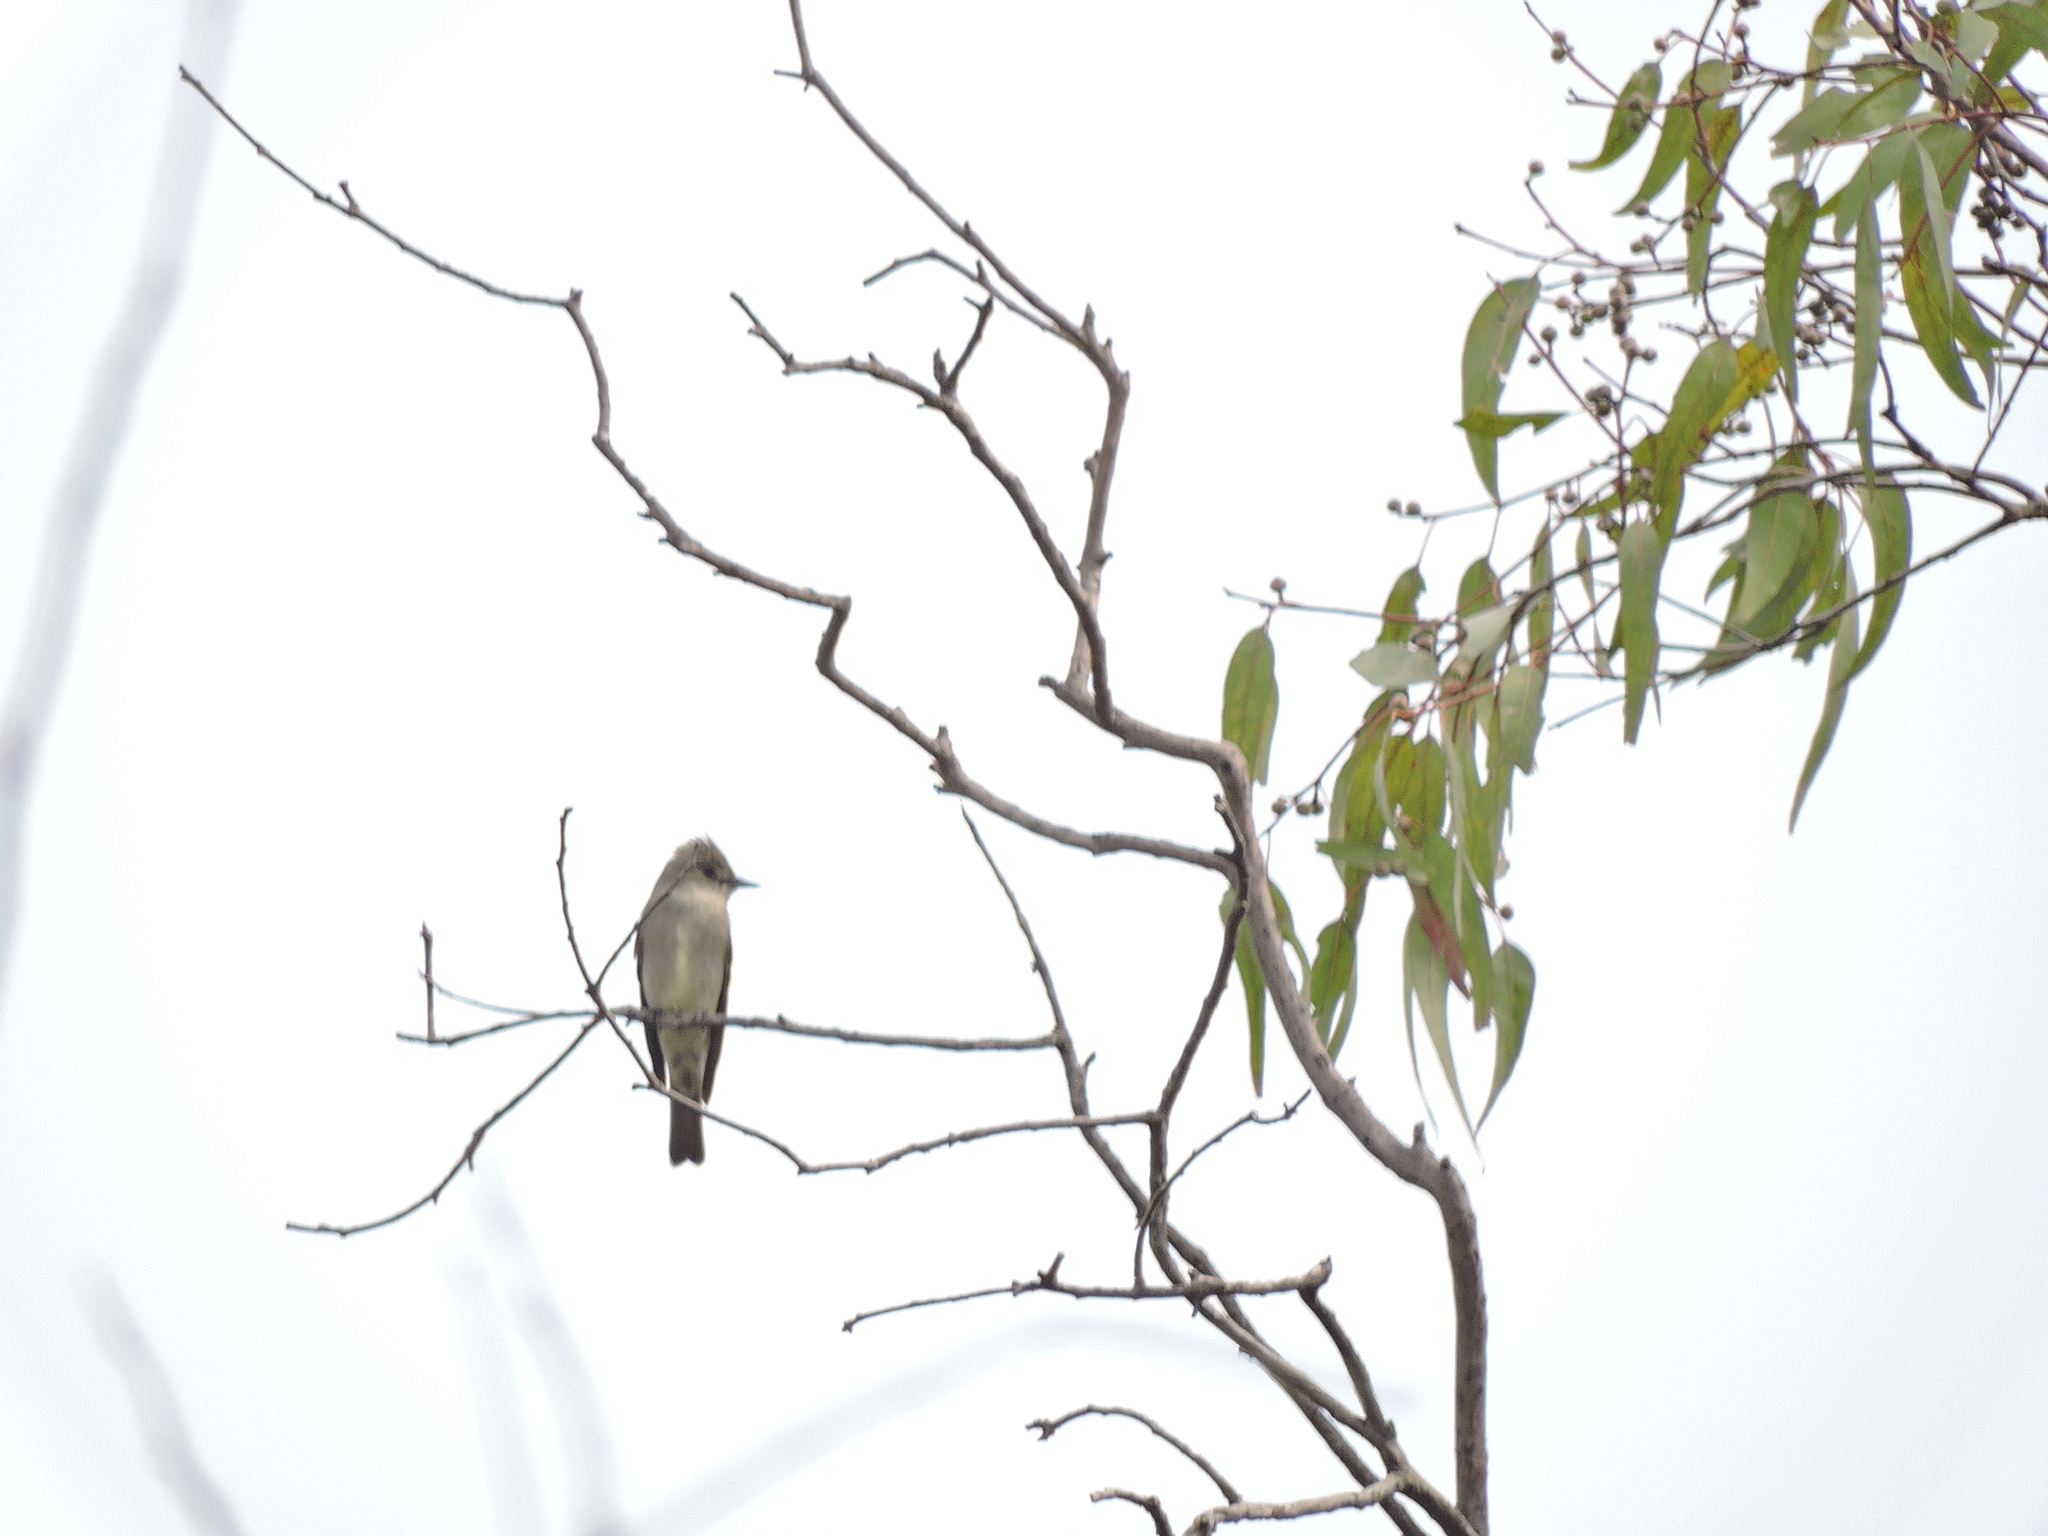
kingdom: Animalia
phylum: Chordata
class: Aves
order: Passeriformes
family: Tyrannidae
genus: Contopus
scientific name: Contopus sordidulus
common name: Western wood-pewee
